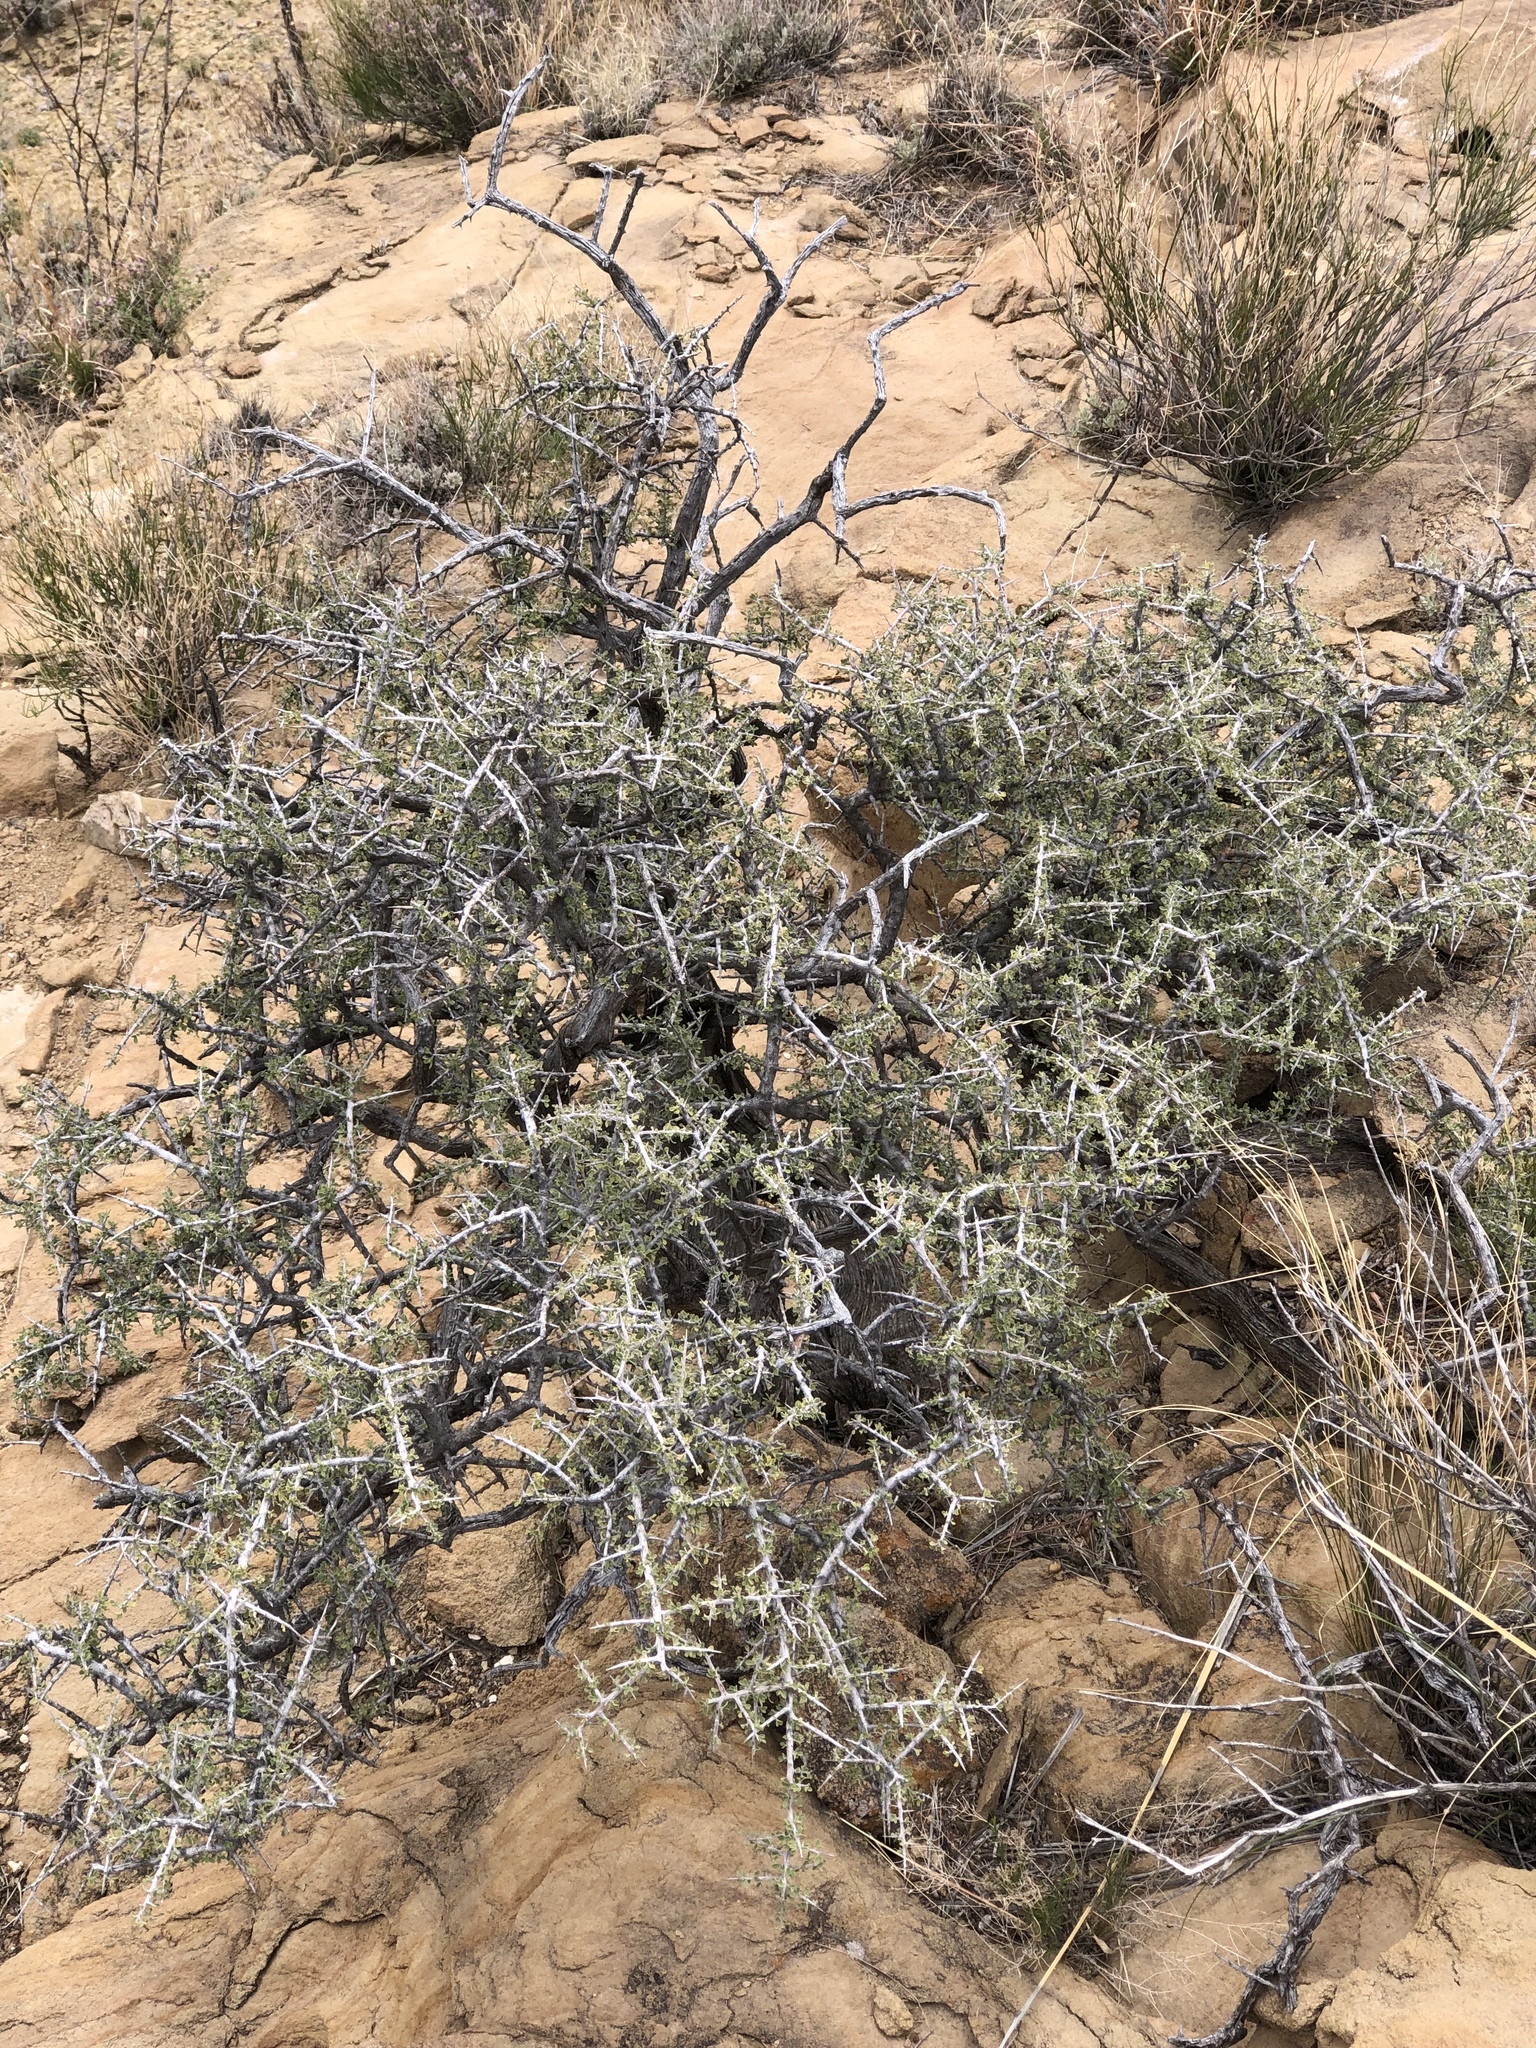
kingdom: Plantae
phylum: Tracheophyta
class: Magnoliopsida
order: Rosales
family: Rhamnaceae
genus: Condalia
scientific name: Condalia warnockii
